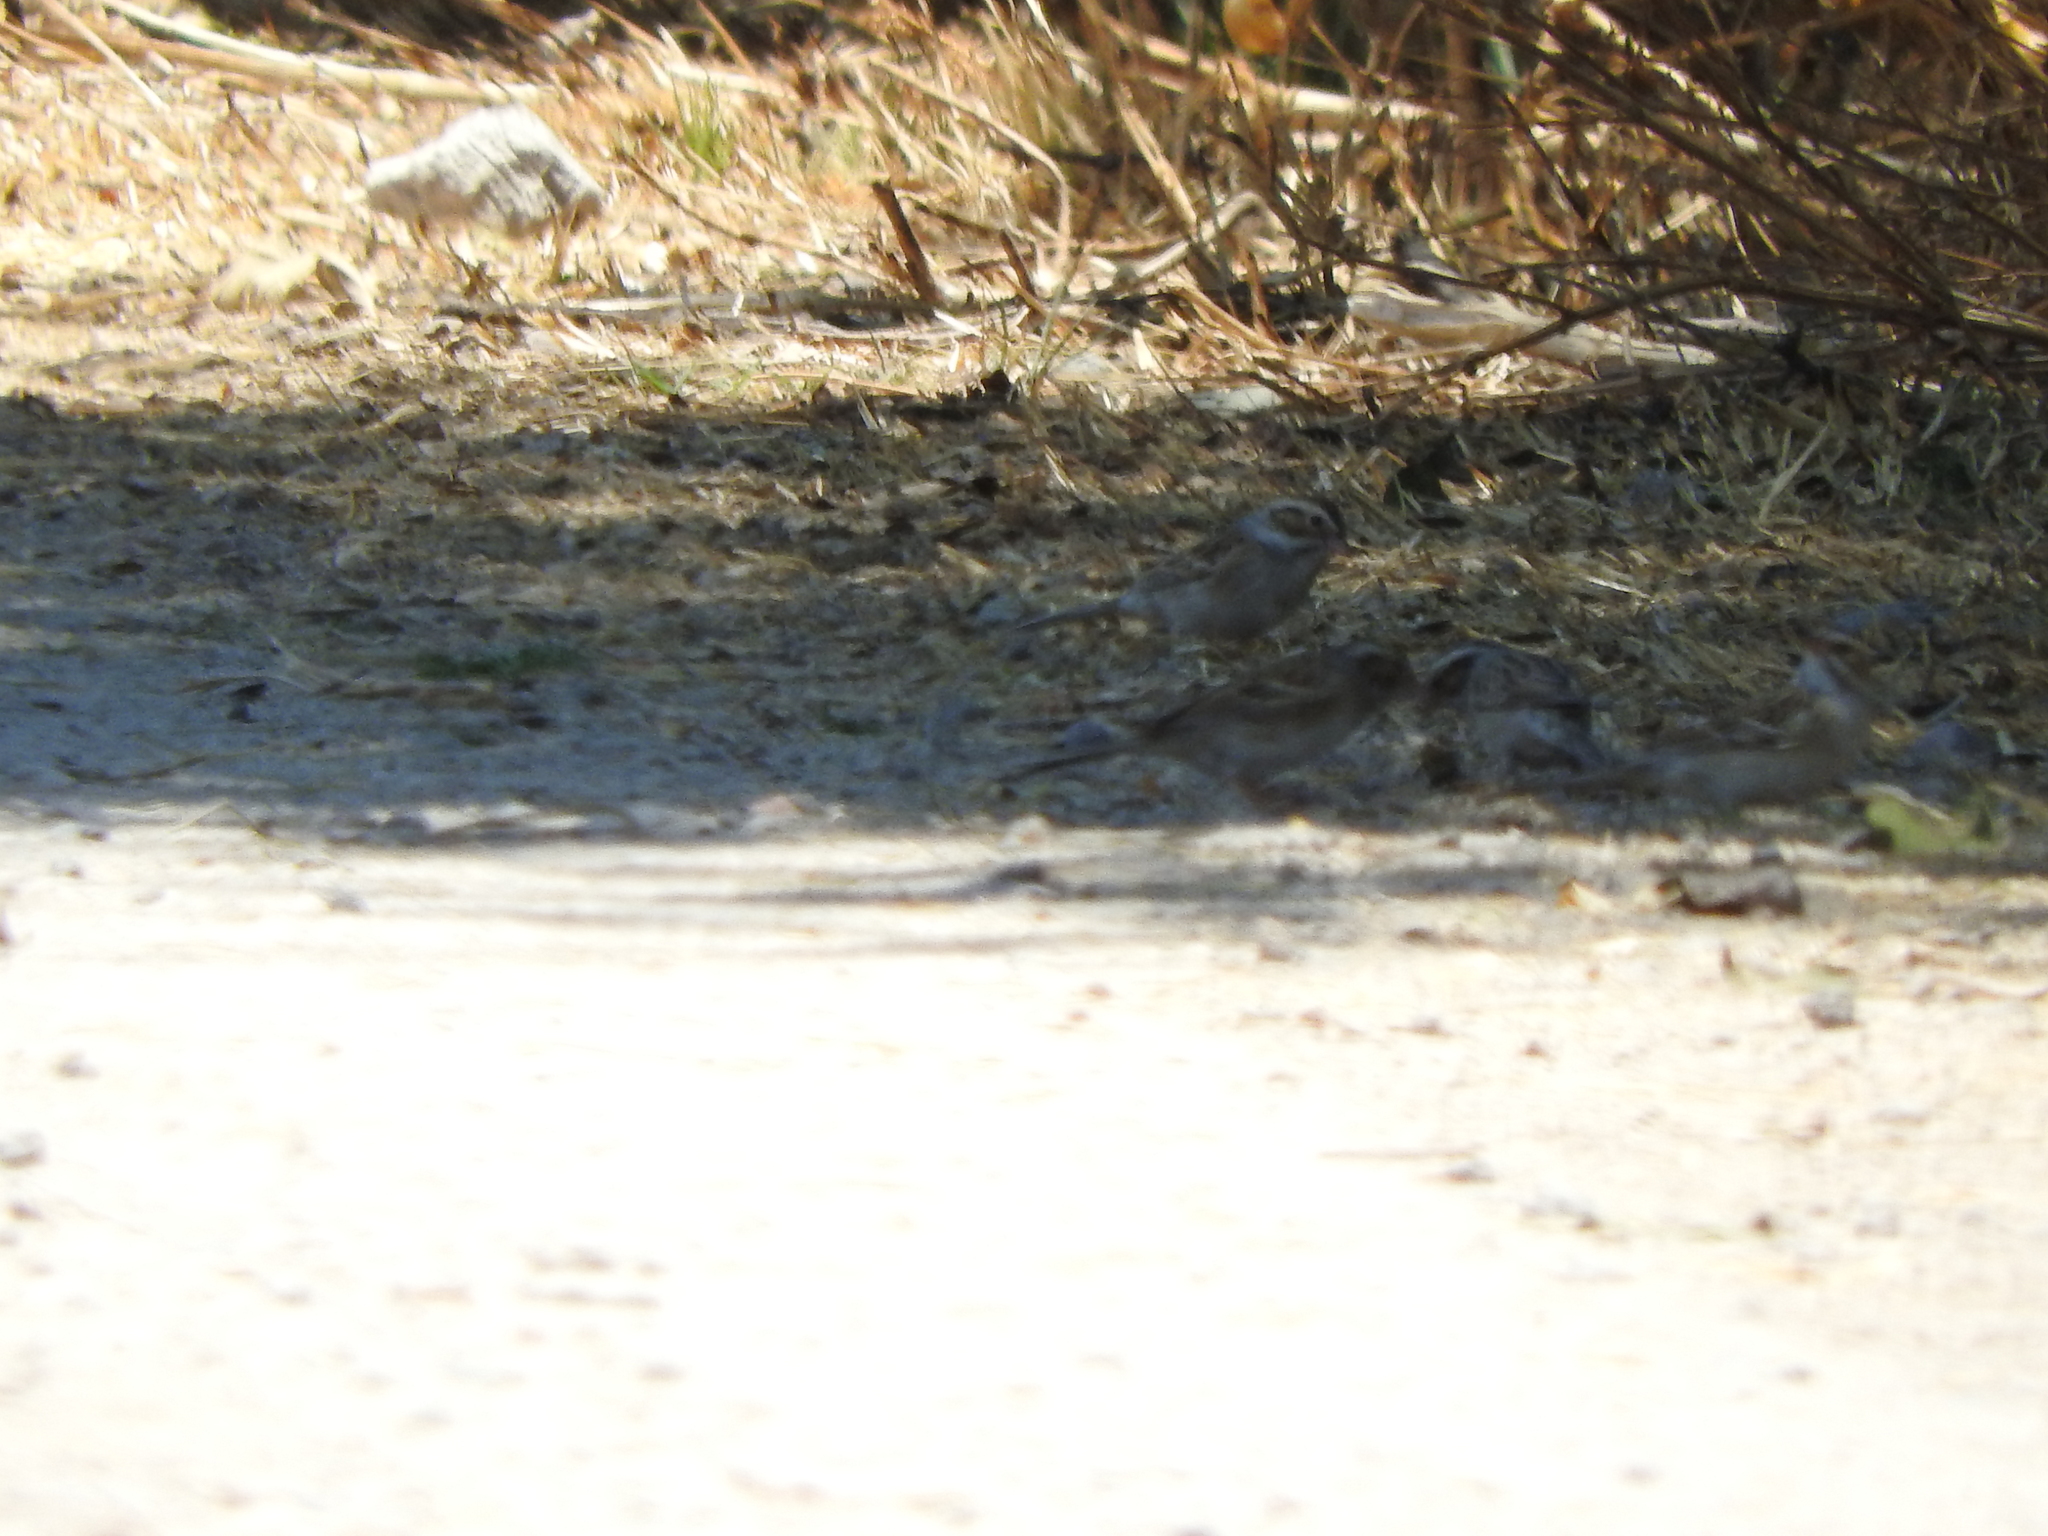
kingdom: Animalia
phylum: Chordata
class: Aves
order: Passeriformes
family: Passerellidae
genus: Spizella
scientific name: Spizella pallida
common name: Clay-colored sparrow
